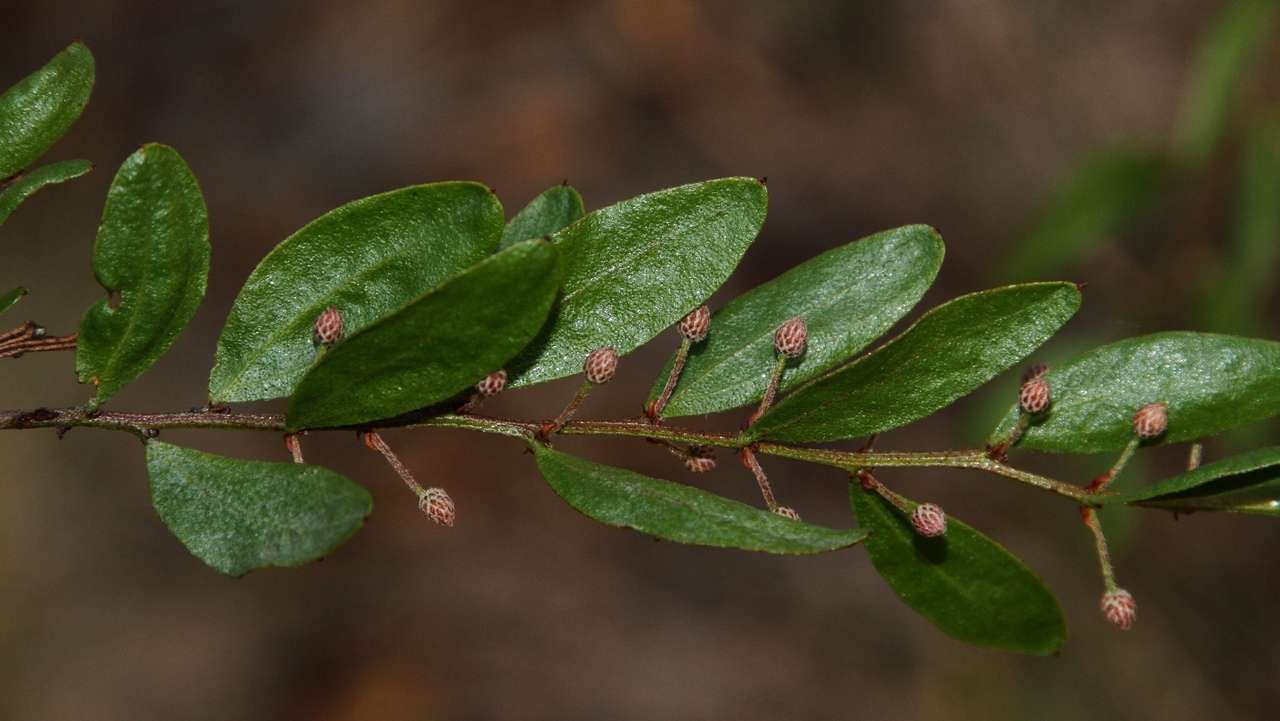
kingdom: Plantae
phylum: Tracheophyta
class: Magnoliopsida
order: Fabales
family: Fabaceae
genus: Acacia
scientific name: Acacia verniciflua
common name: Varnish wattle
